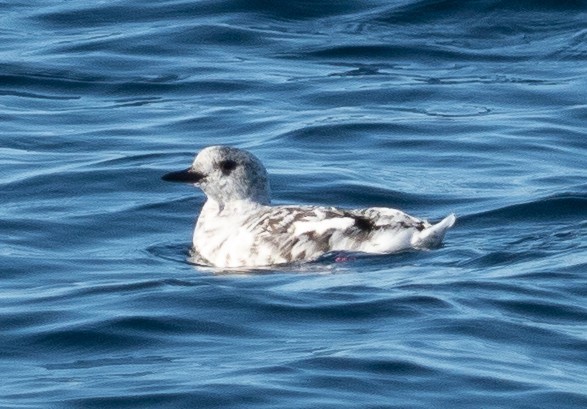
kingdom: Animalia
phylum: Chordata
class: Aves
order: Charadriiformes
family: Alcidae
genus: Cepphus
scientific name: Cepphus grylle
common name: Black guillemot
